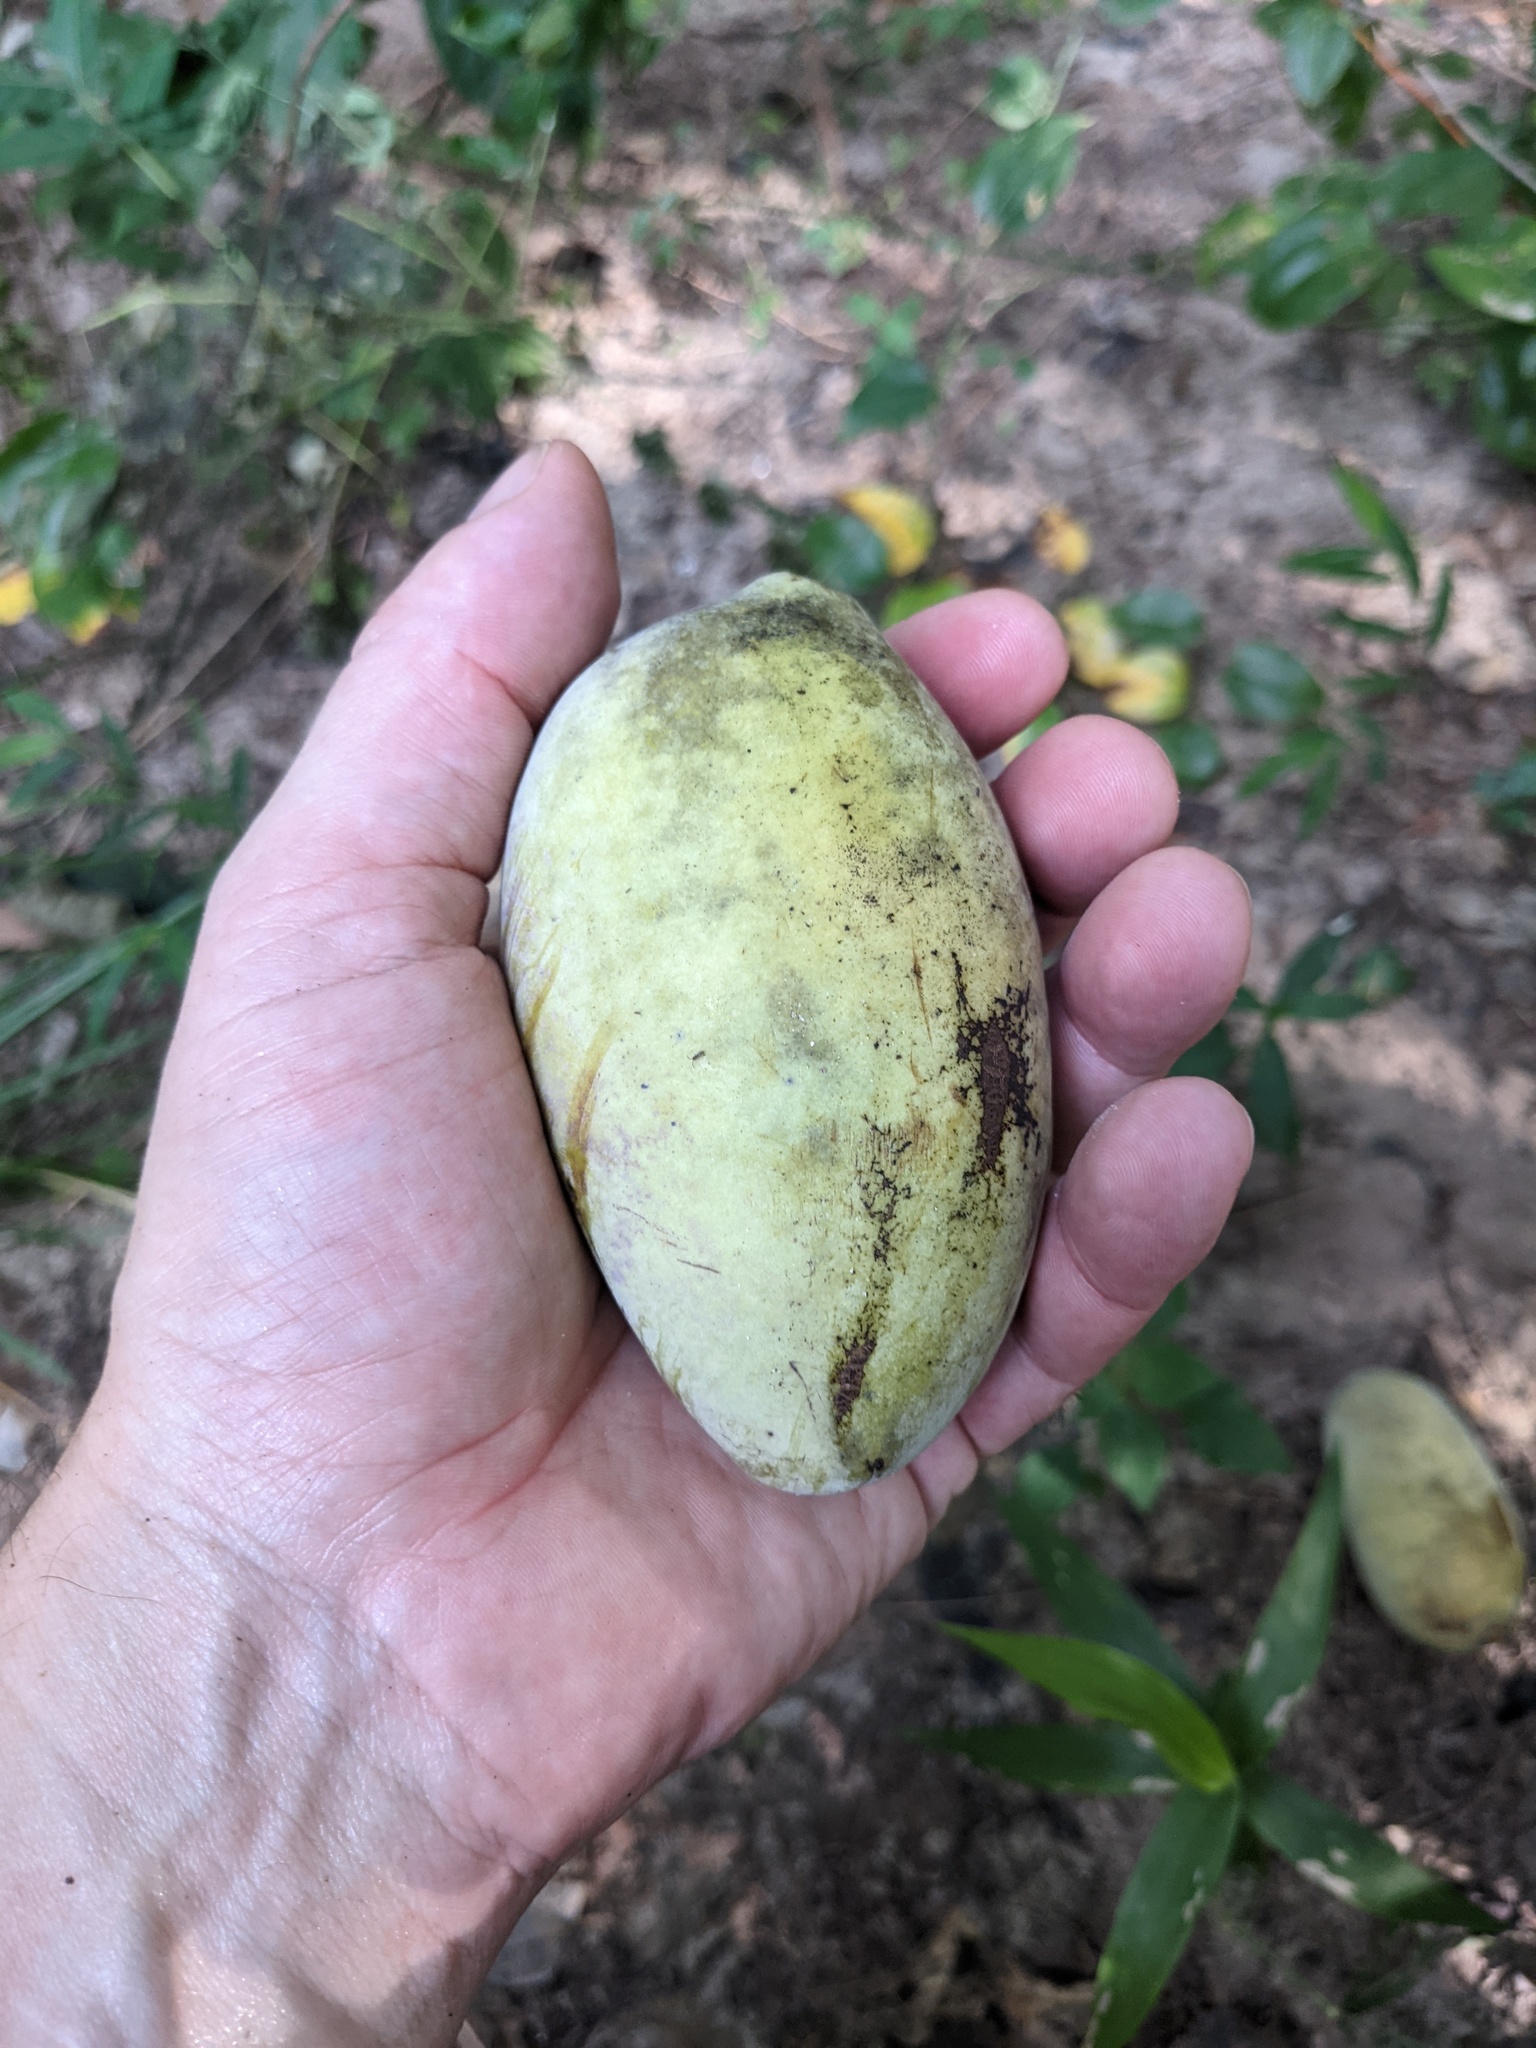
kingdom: Plantae
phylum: Tracheophyta
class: Magnoliopsida
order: Magnoliales
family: Annonaceae
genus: Asimina
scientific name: Asimina triloba
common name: Dog-banana
